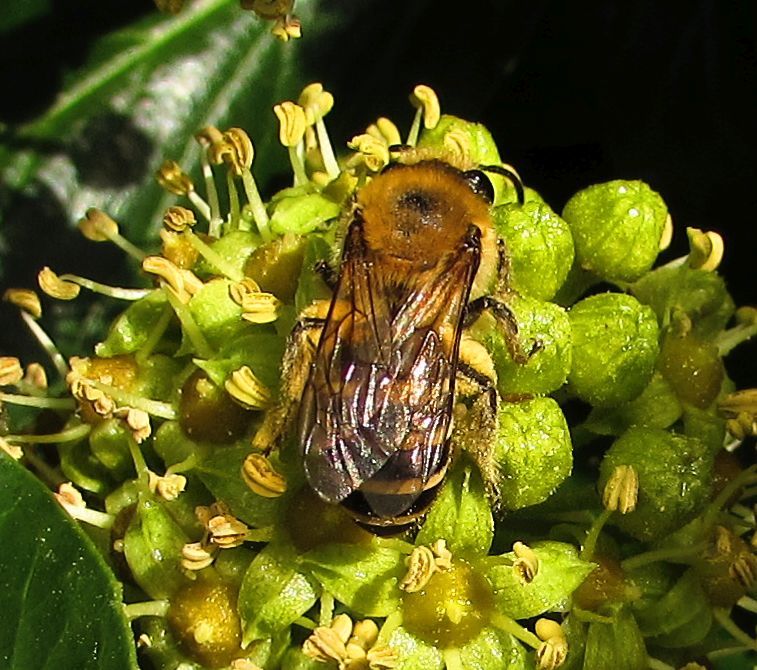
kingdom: Animalia
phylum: Arthropoda
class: Insecta
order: Hymenoptera
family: Colletidae
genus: Colletes
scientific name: Colletes hederae
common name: Ivy bee
